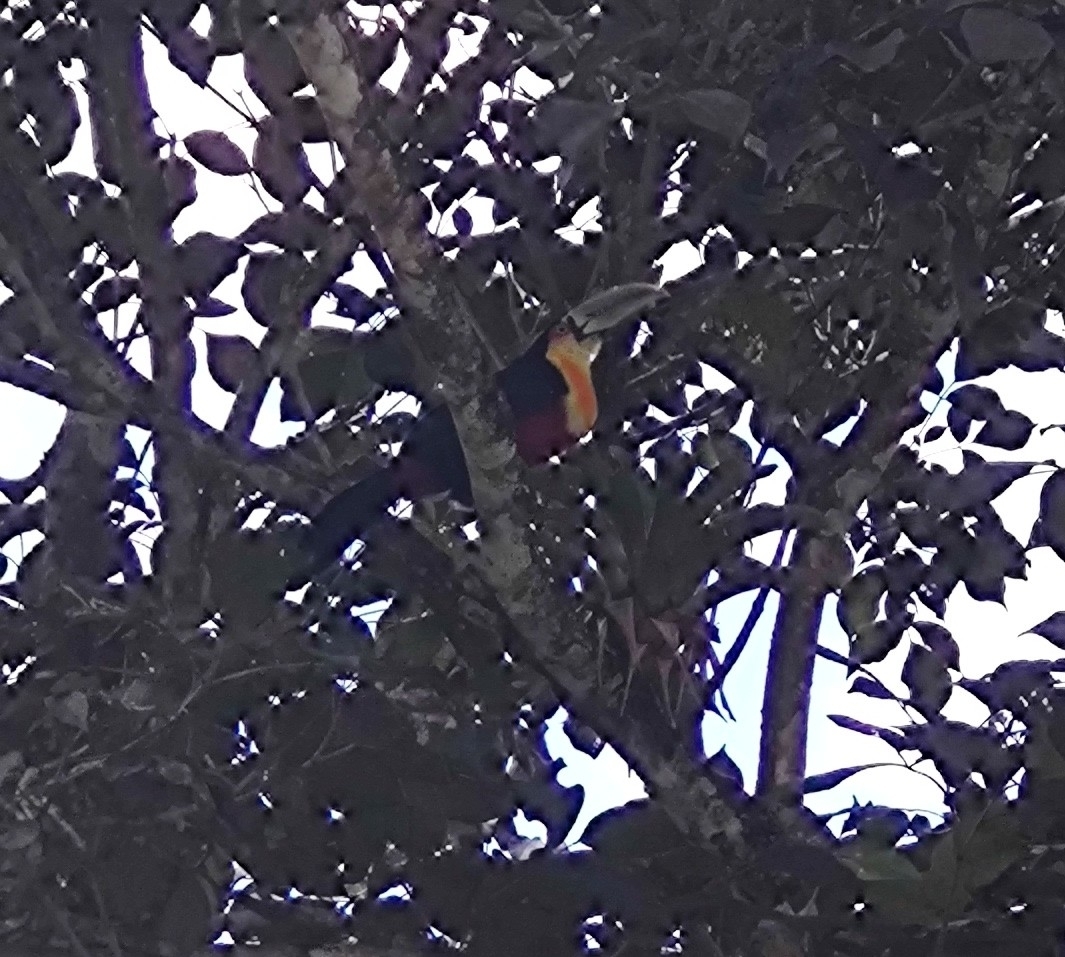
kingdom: Animalia
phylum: Chordata
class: Aves
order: Piciformes
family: Ramphastidae
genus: Ramphastos
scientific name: Ramphastos dicolorus
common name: Green-billed toucan
